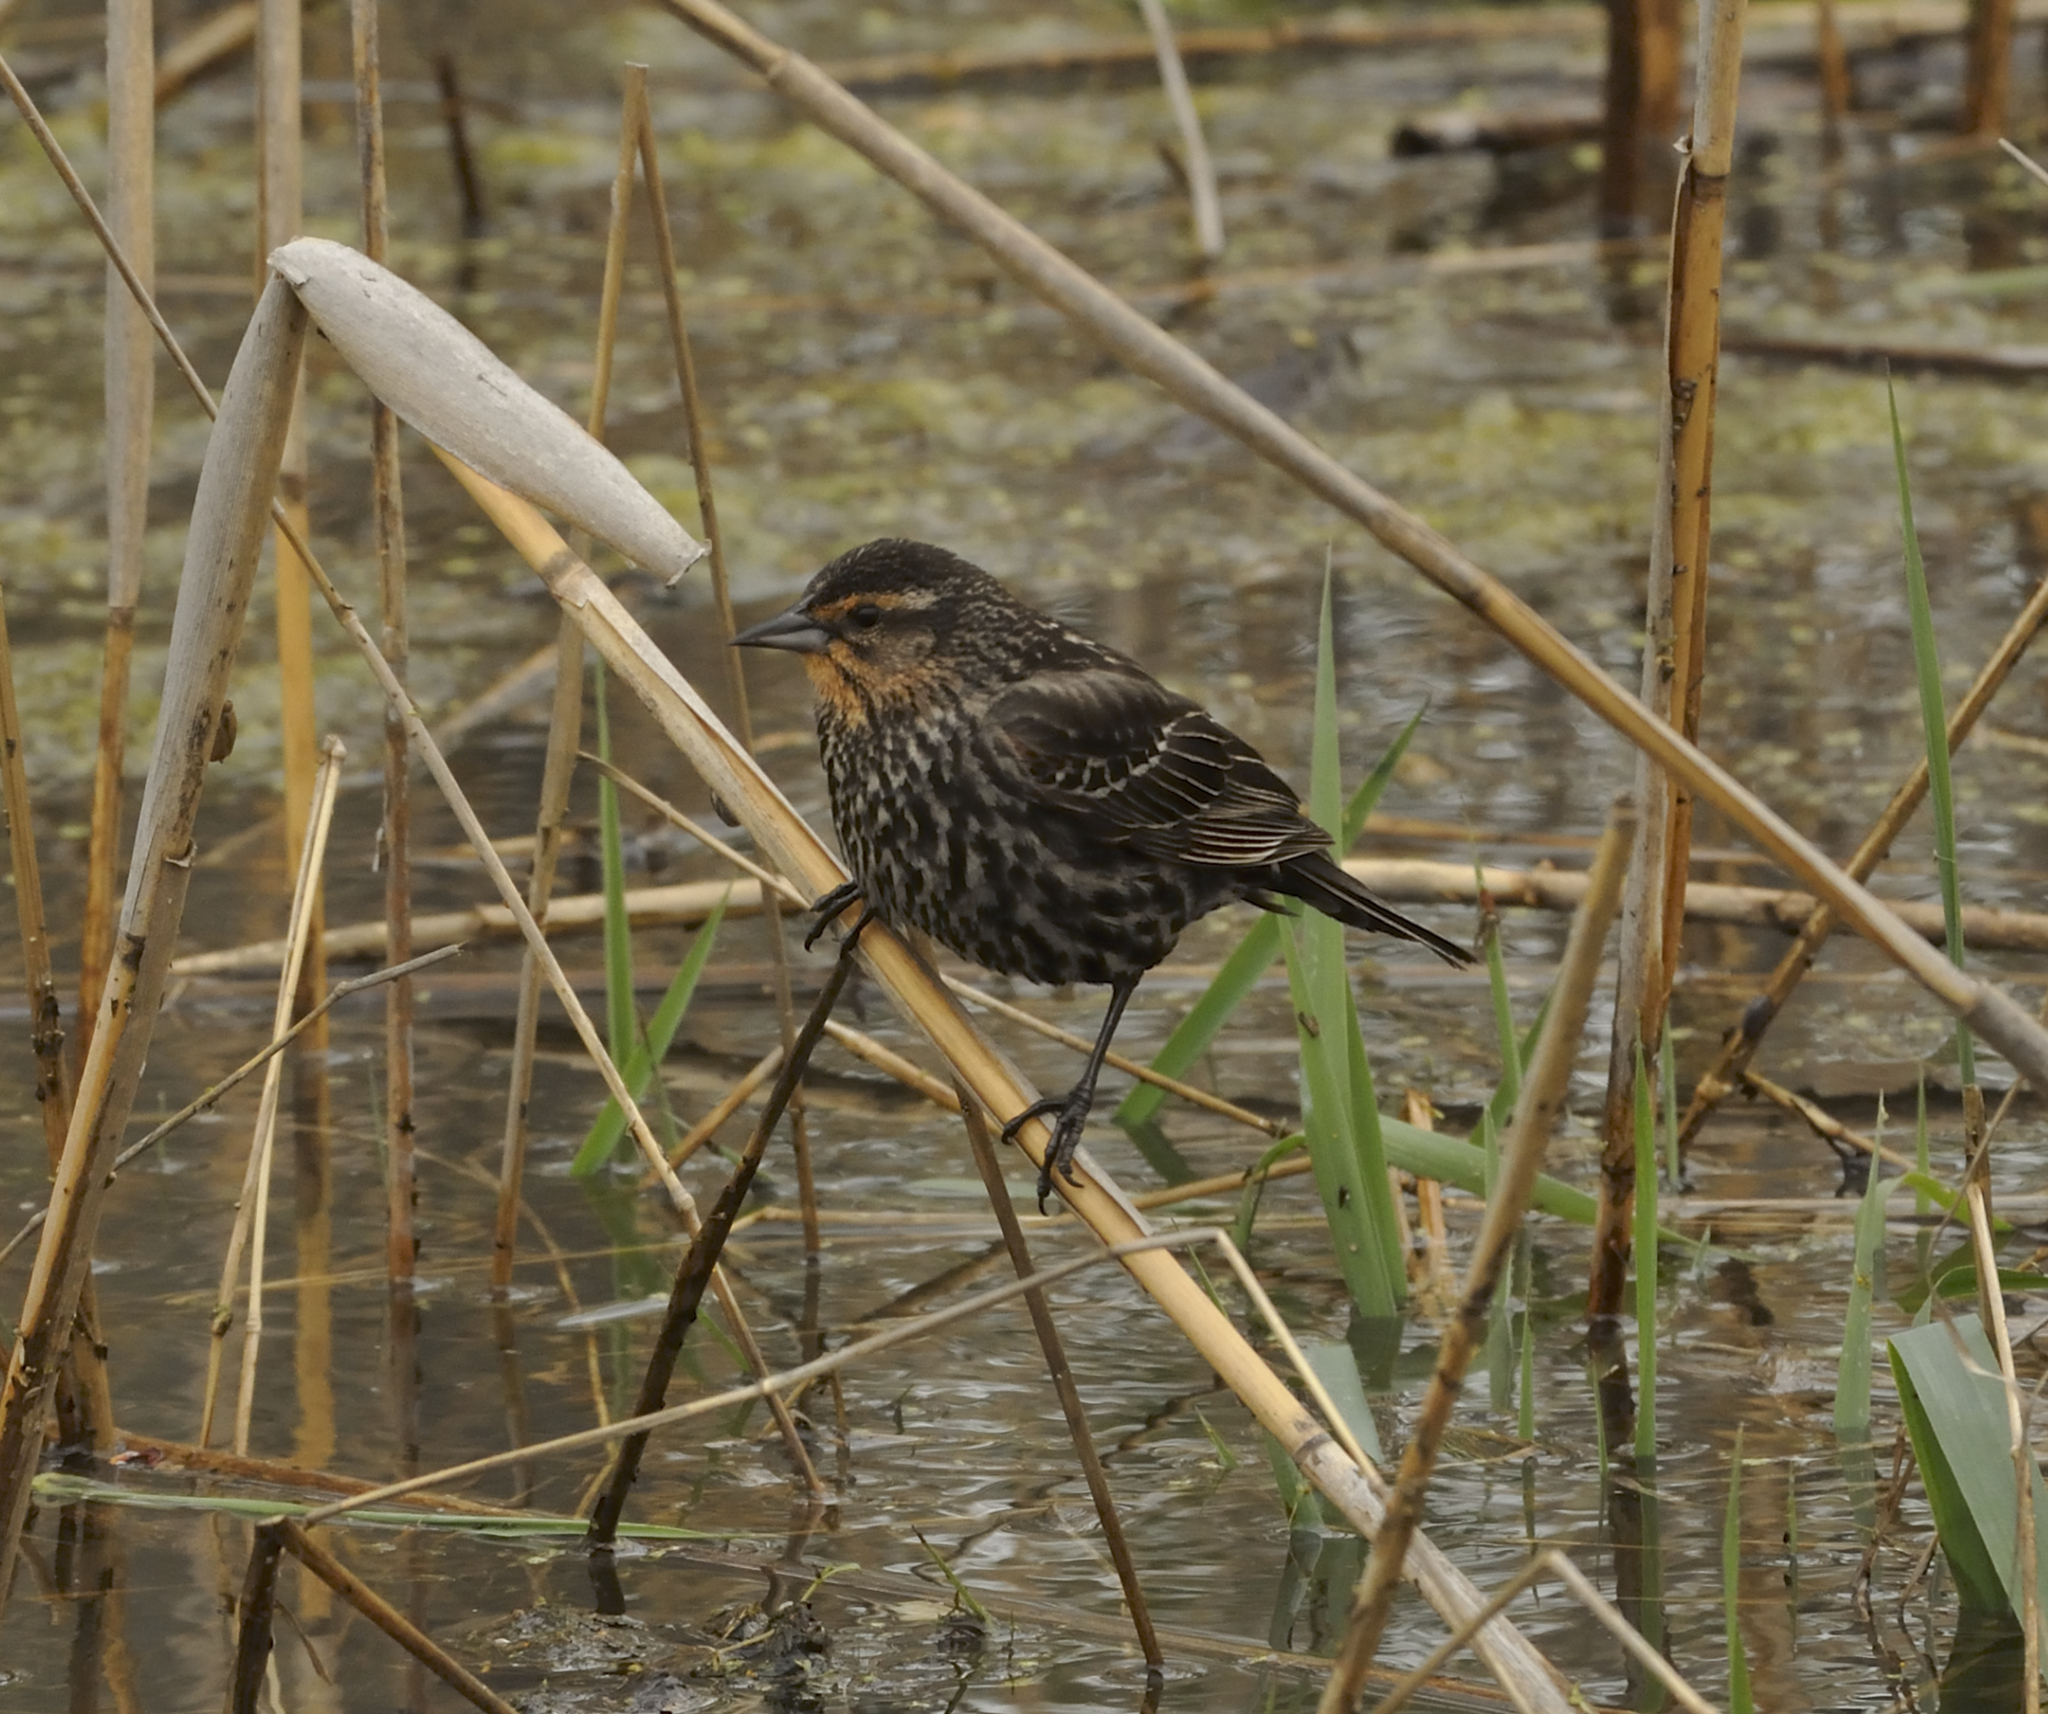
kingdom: Animalia
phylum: Chordata
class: Aves
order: Passeriformes
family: Icteridae
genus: Agelaius
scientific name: Agelaius phoeniceus
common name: Red-winged blackbird
